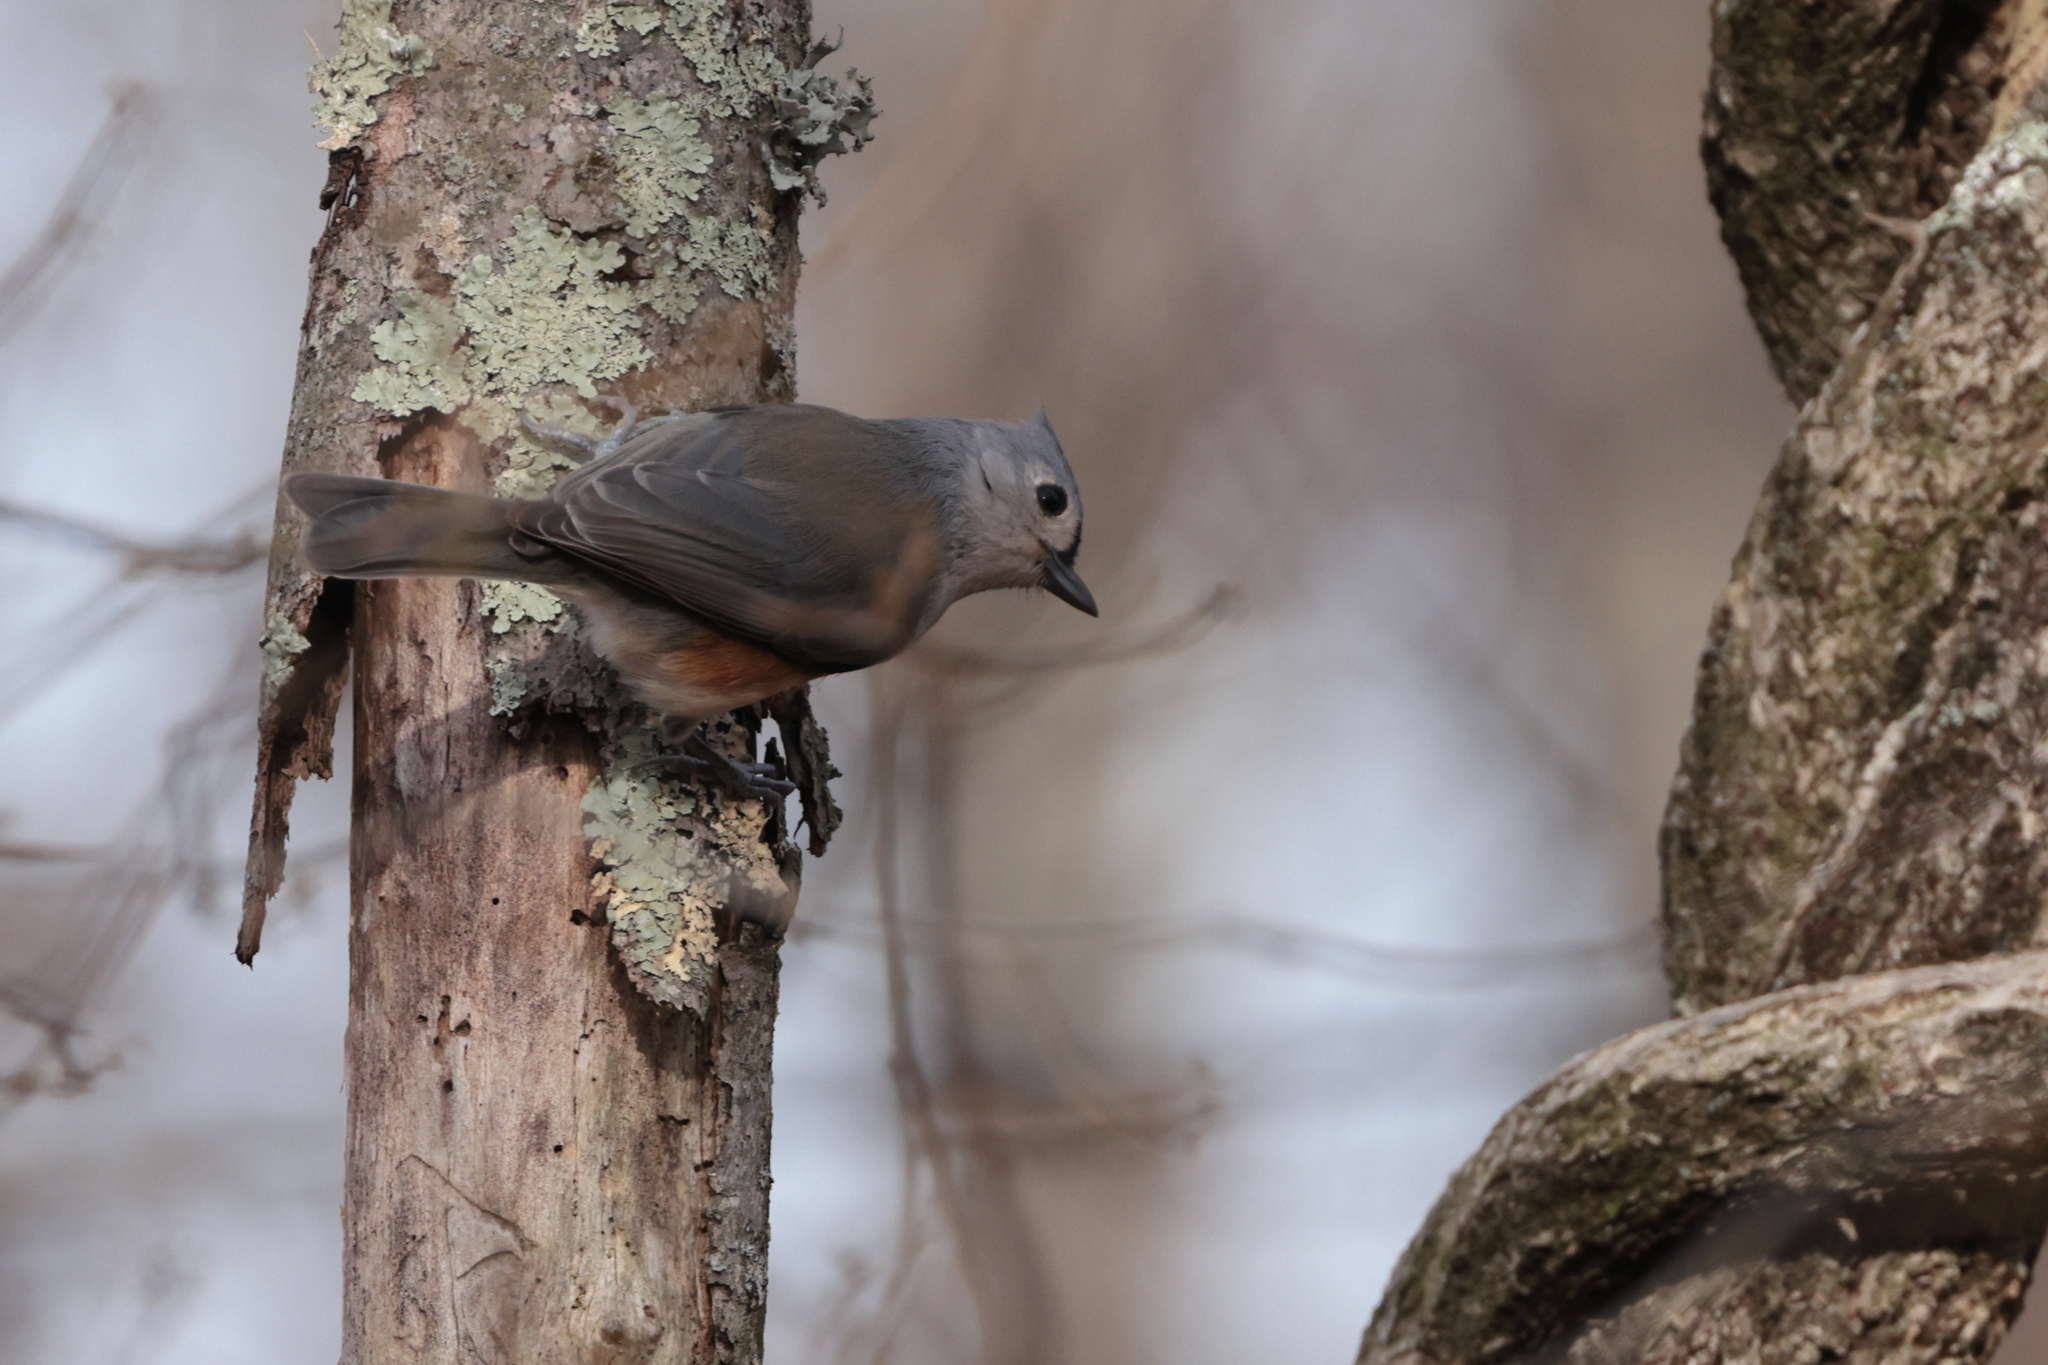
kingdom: Animalia
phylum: Chordata
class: Aves
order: Passeriformes
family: Paridae
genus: Baeolophus
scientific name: Baeolophus bicolor
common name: Tufted titmouse
